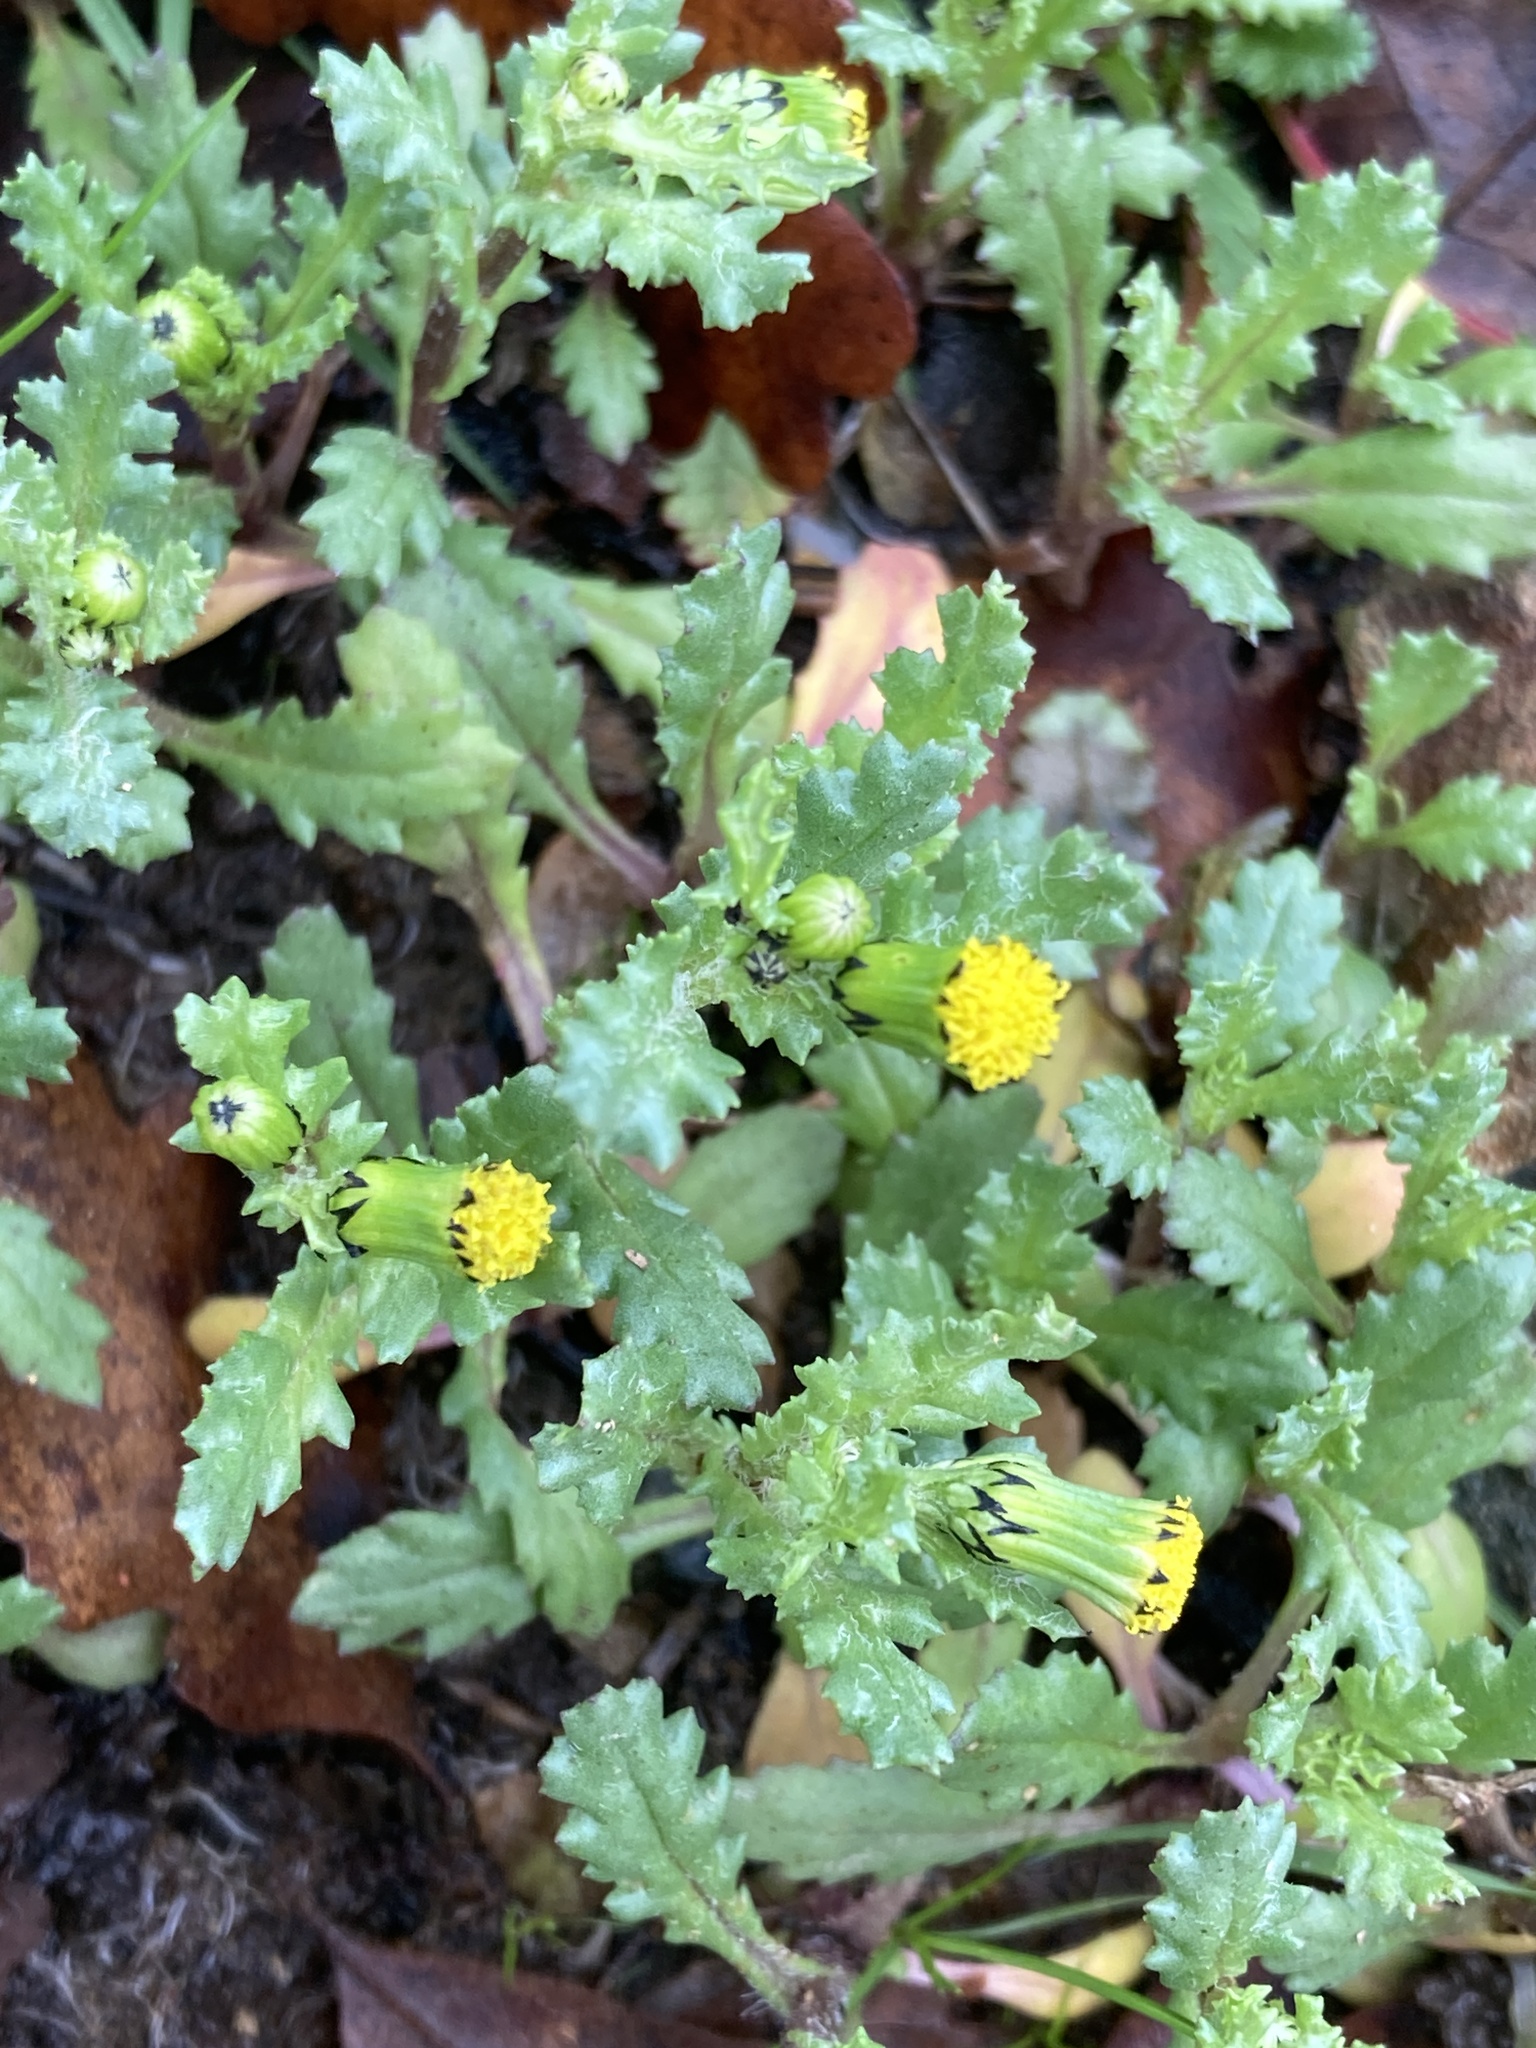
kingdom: Plantae
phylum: Tracheophyta
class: Magnoliopsida
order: Asterales
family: Asteraceae
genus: Senecio
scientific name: Senecio vulgaris
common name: Old-man-in-the-spring
